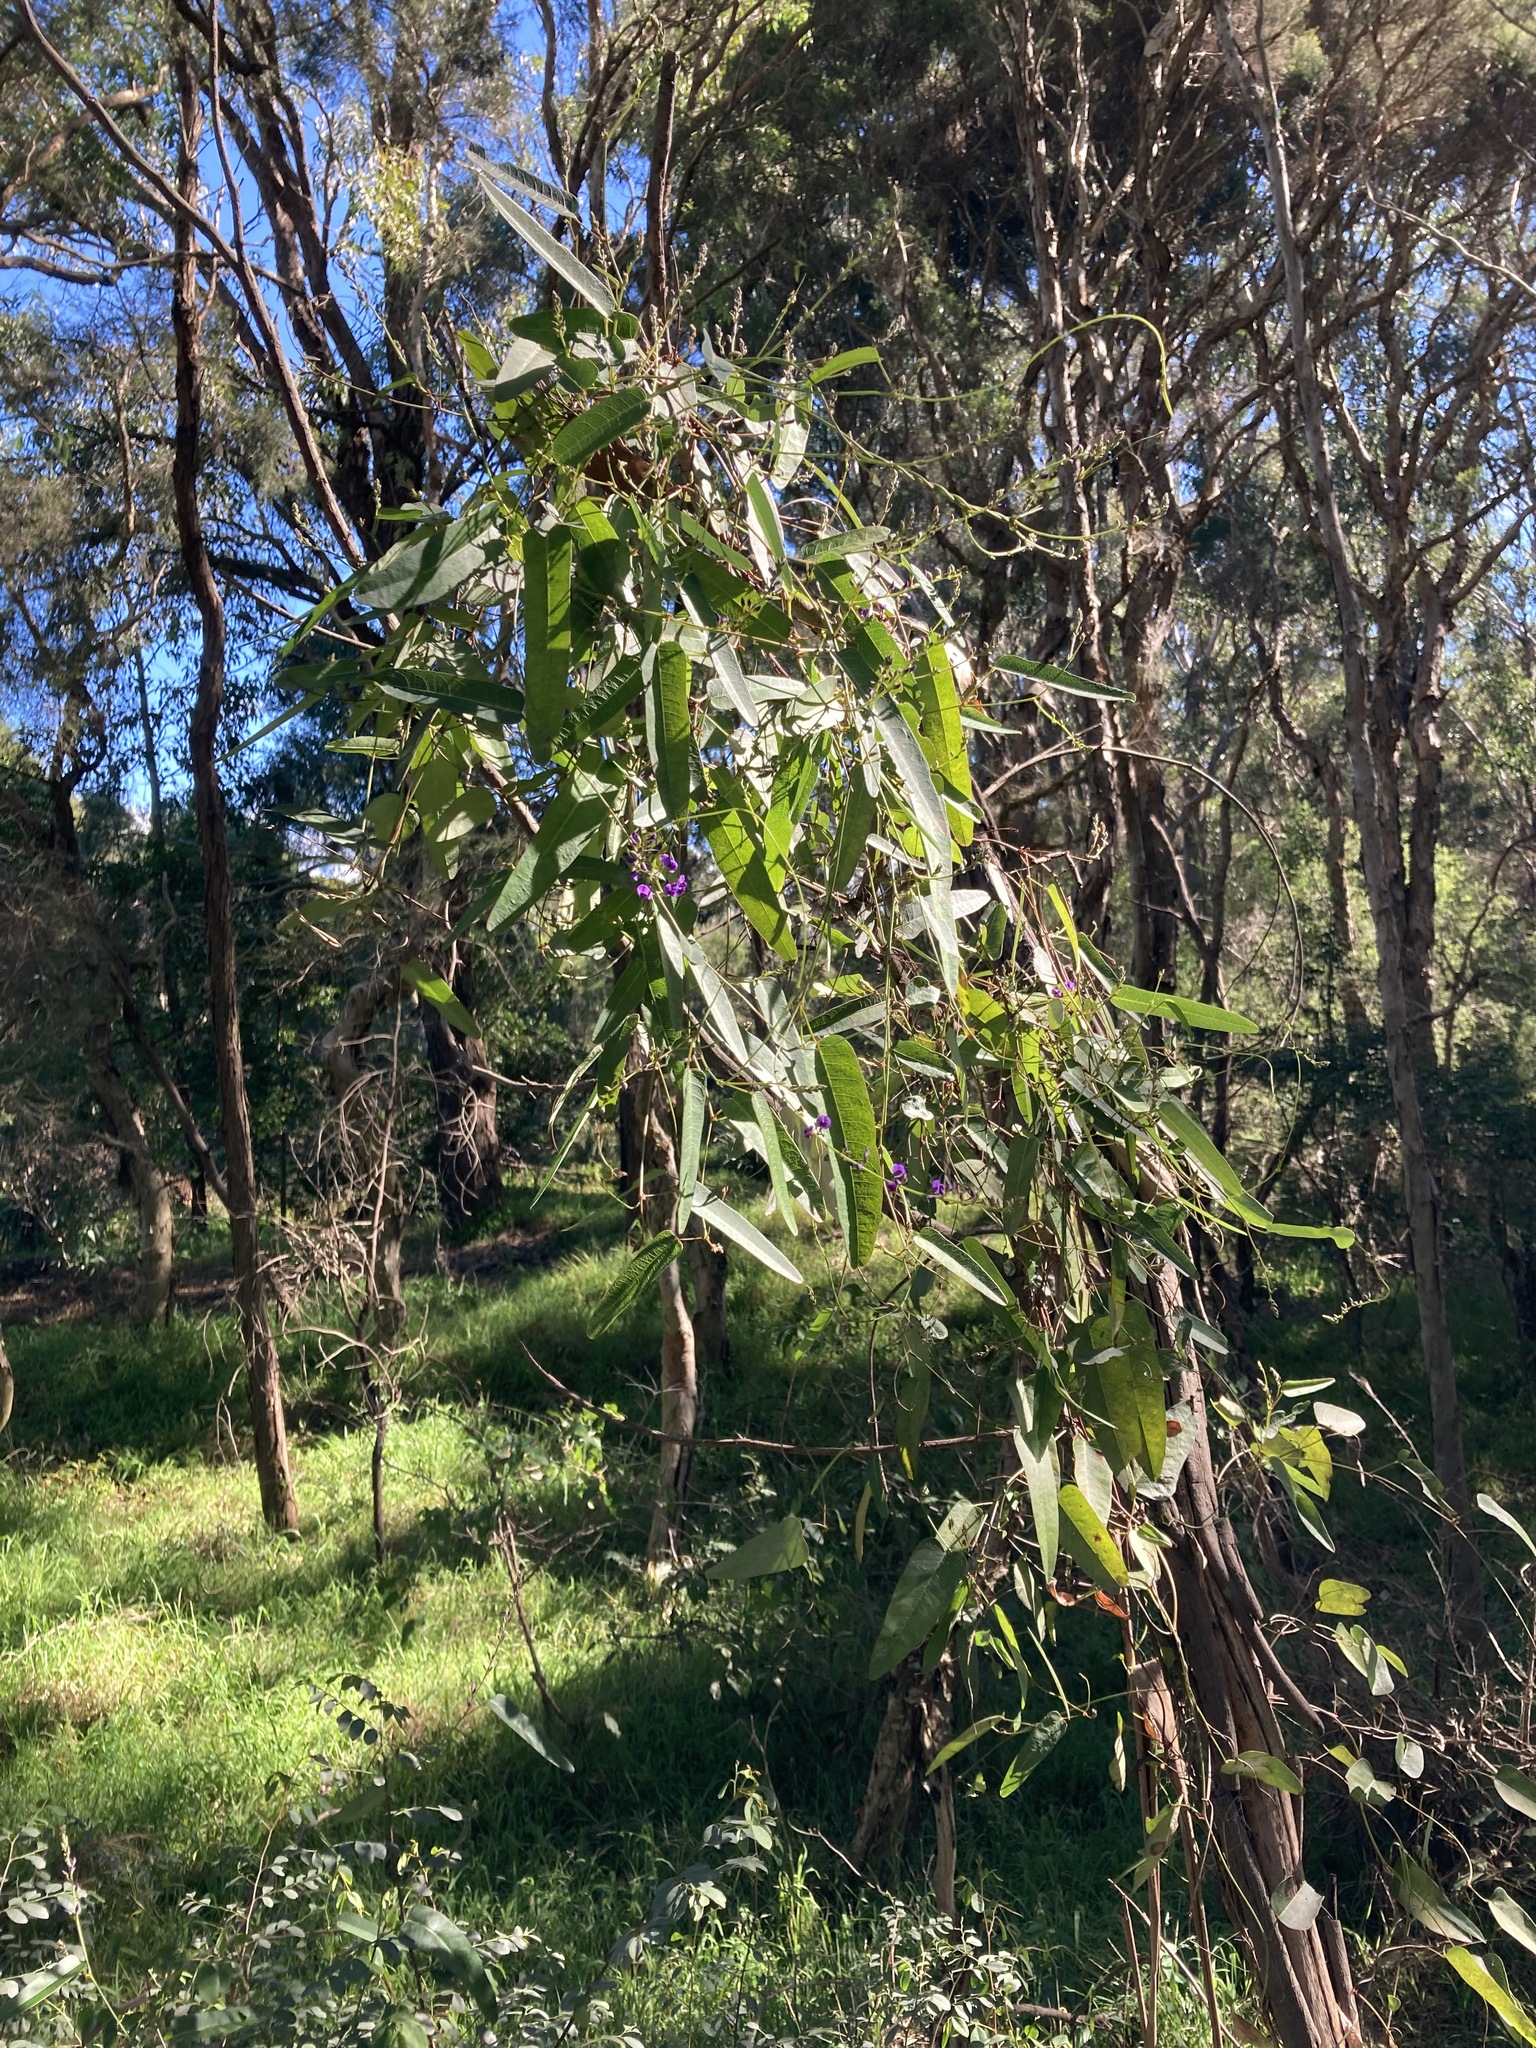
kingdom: Plantae
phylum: Tracheophyta
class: Magnoliopsida
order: Fabales
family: Fabaceae
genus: Hardenbergia
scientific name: Hardenbergia violacea
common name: Coral-pea
